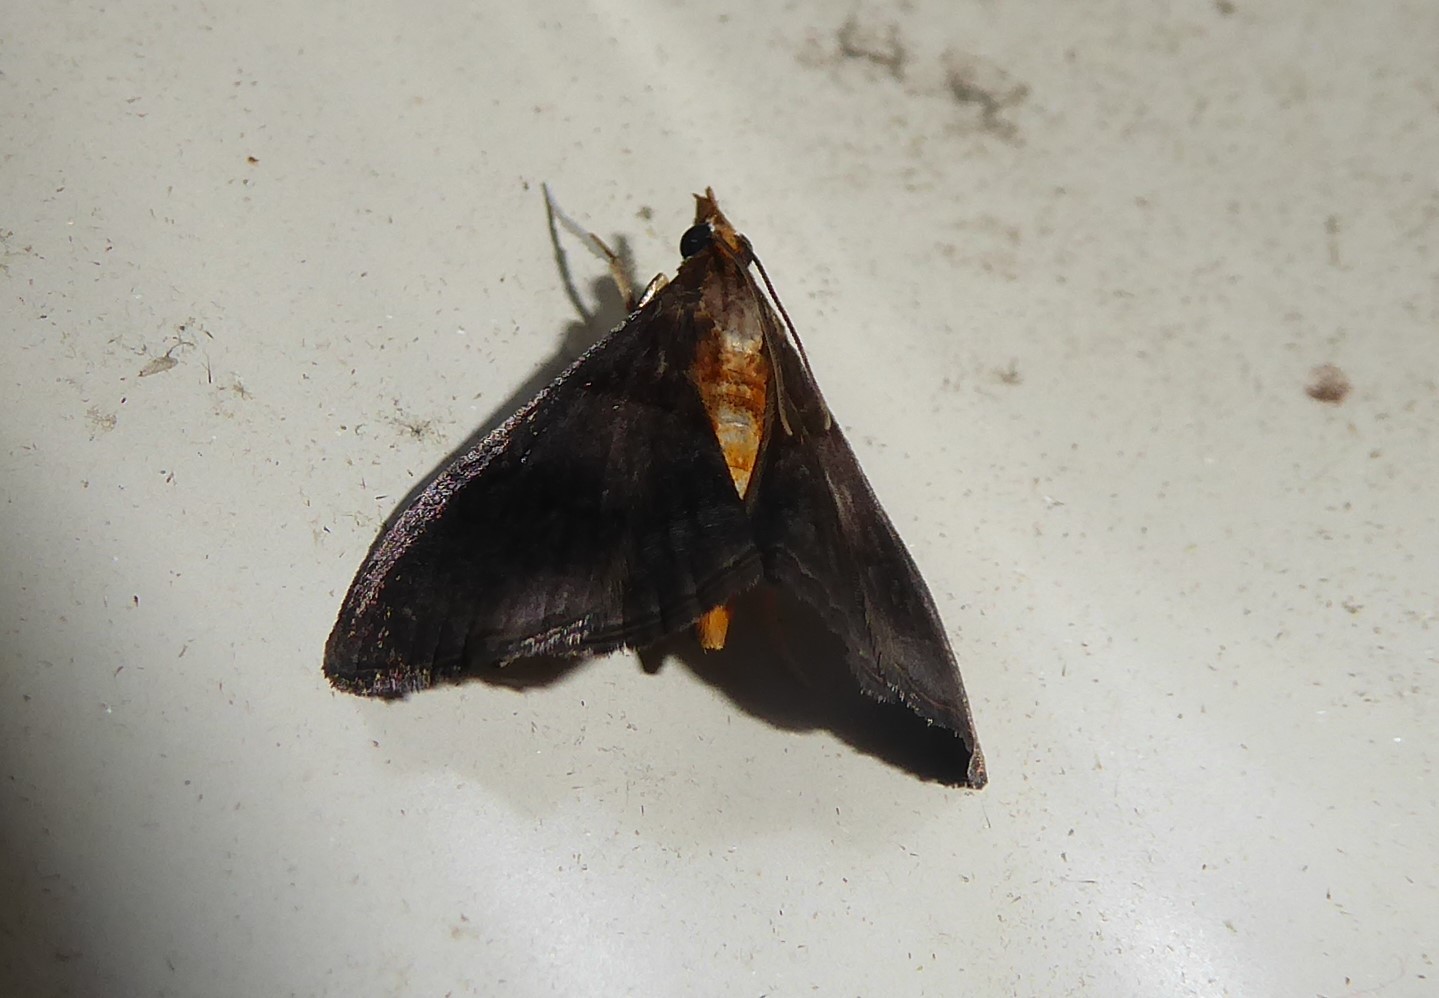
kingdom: Animalia
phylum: Arthropoda
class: Insecta
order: Lepidoptera
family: Crambidae
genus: Hemiscopis
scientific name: Hemiscopis violacea
